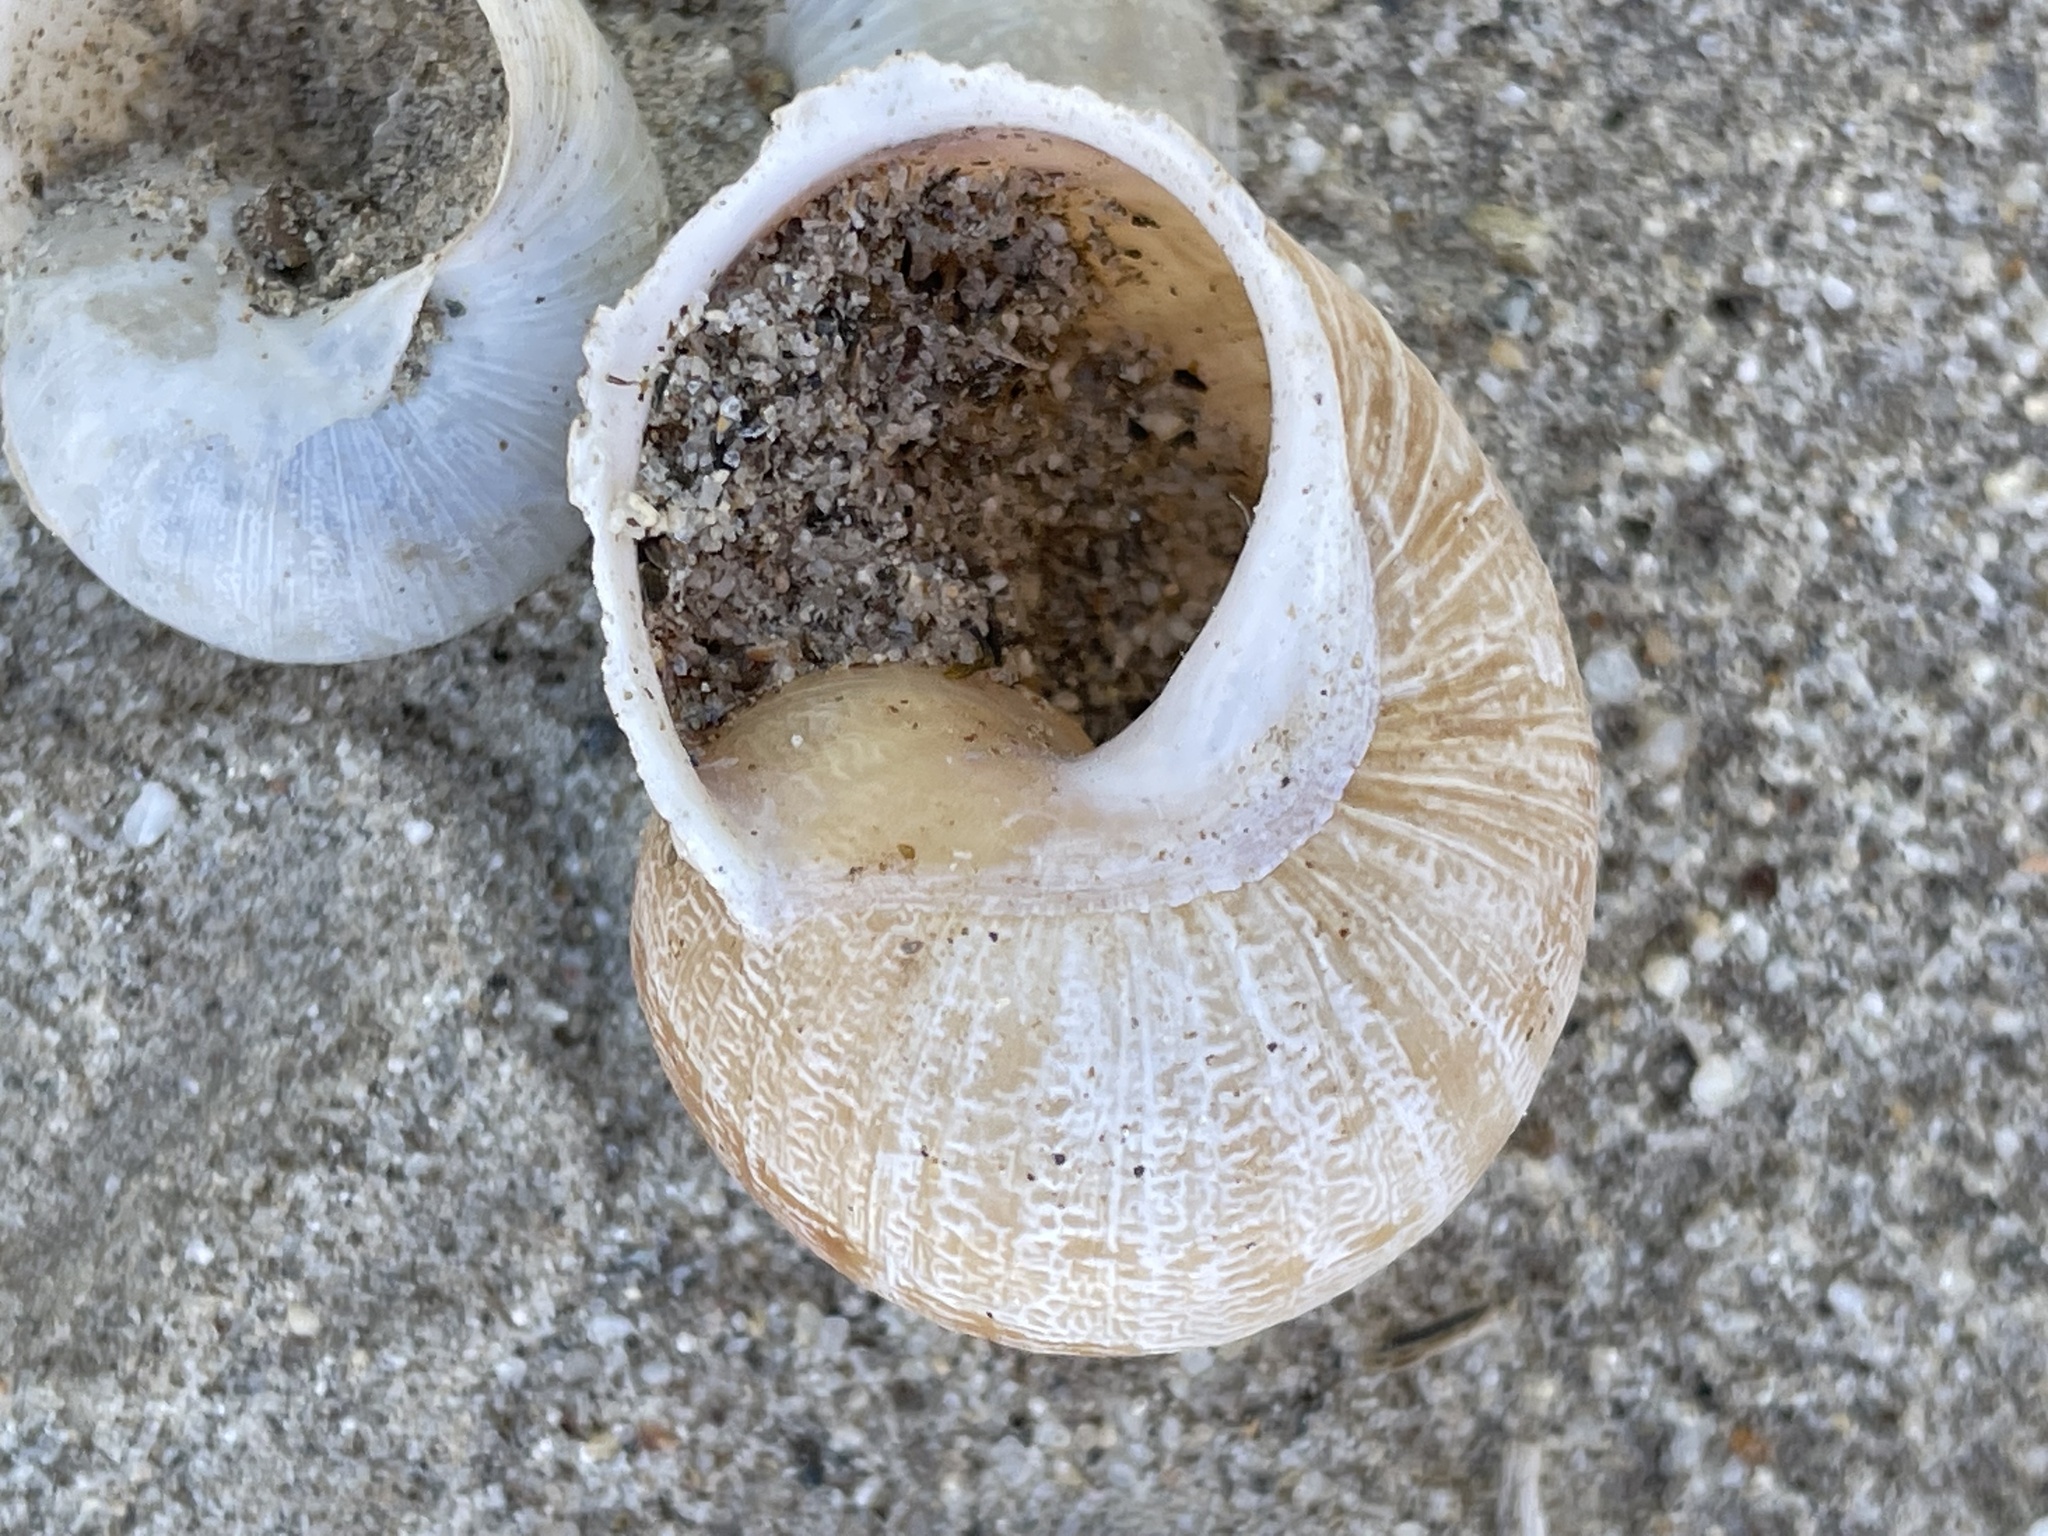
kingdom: Animalia
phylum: Mollusca
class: Gastropoda
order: Stylommatophora
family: Helicidae
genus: Cornu
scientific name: Cornu aspersum
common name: Brown garden snail
